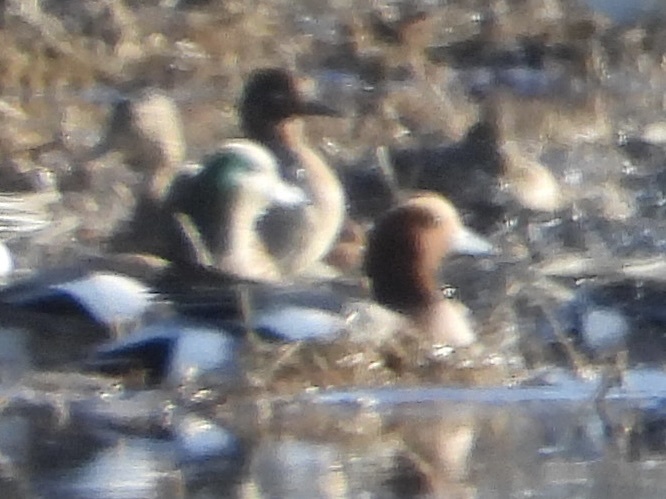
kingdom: Animalia
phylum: Chordata
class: Aves
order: Anseriformes
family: Anatidae
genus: Mareca
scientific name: Mareca penelope
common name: Eurasian wigeon
